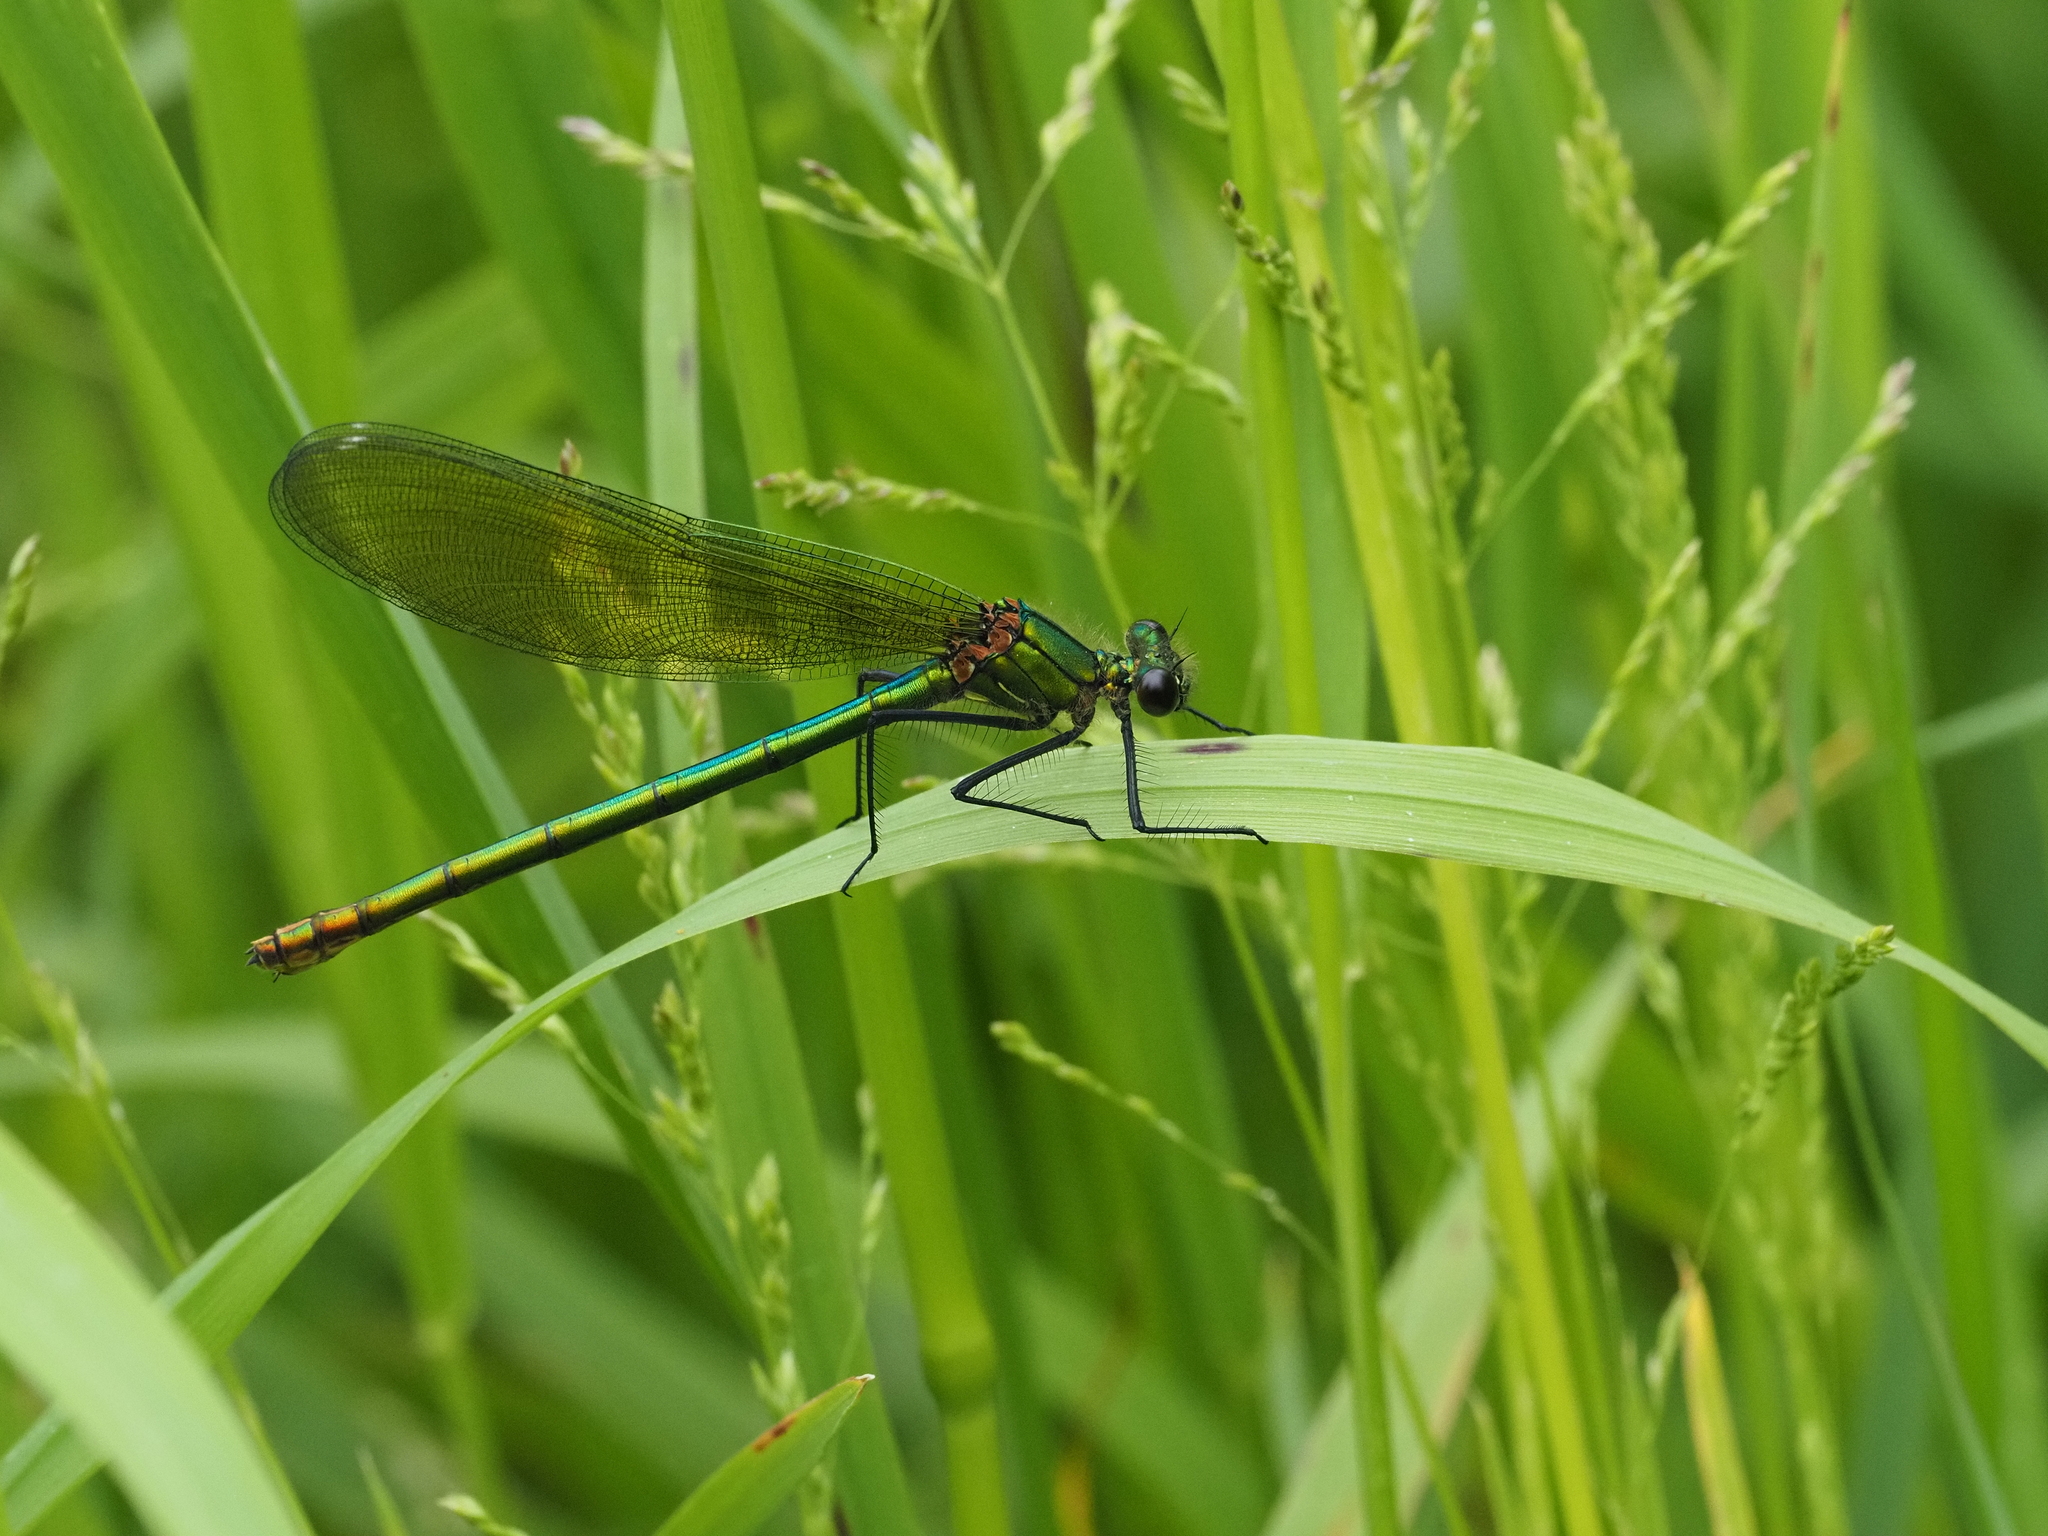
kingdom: Animalia
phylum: Arthropoda
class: Insecta
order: Odonata
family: Calopterygidae
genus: Calopteryx
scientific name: Calopteryx splendens
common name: Banded demoiselle
